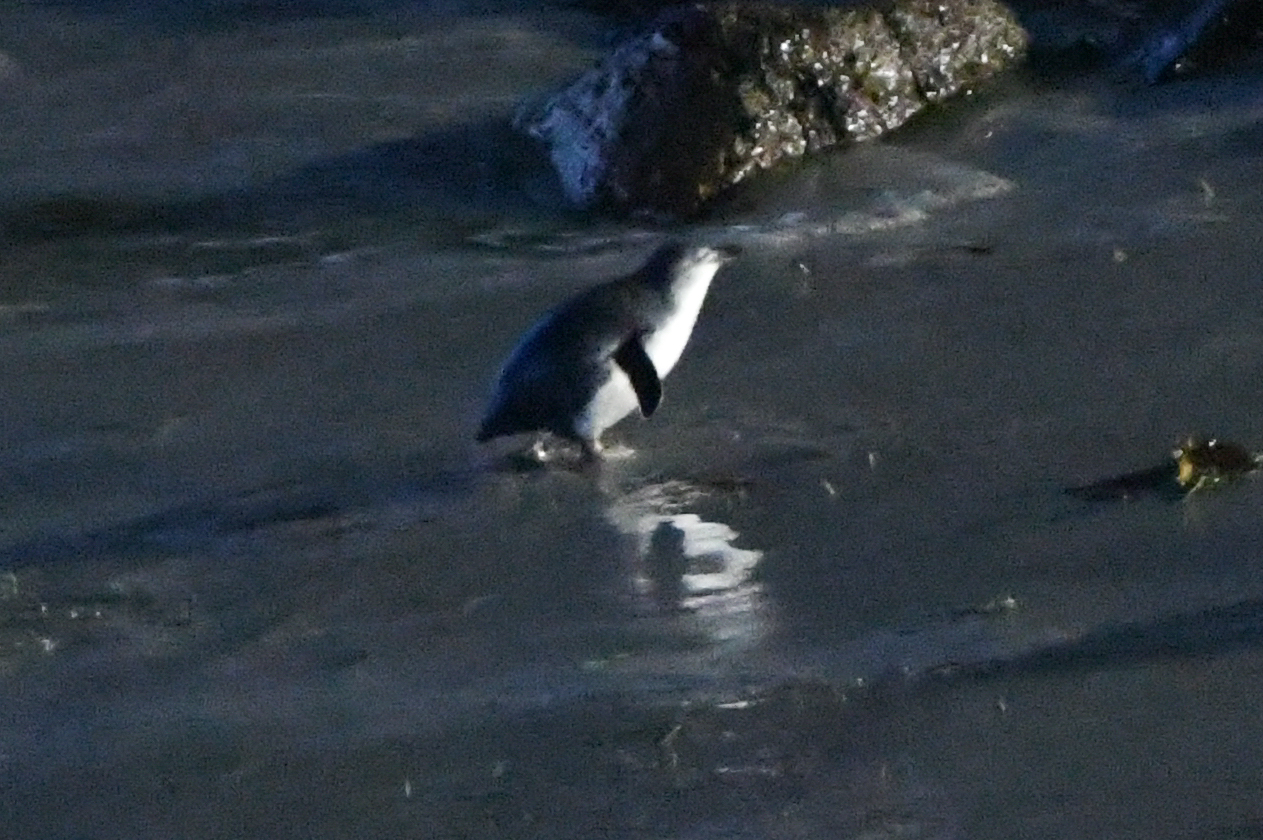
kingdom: Animalia
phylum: Chordata
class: Aves
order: Sphenisciformes
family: Spheniscidae
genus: Eudyptula
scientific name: Eudyptula minor
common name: Little penguin
